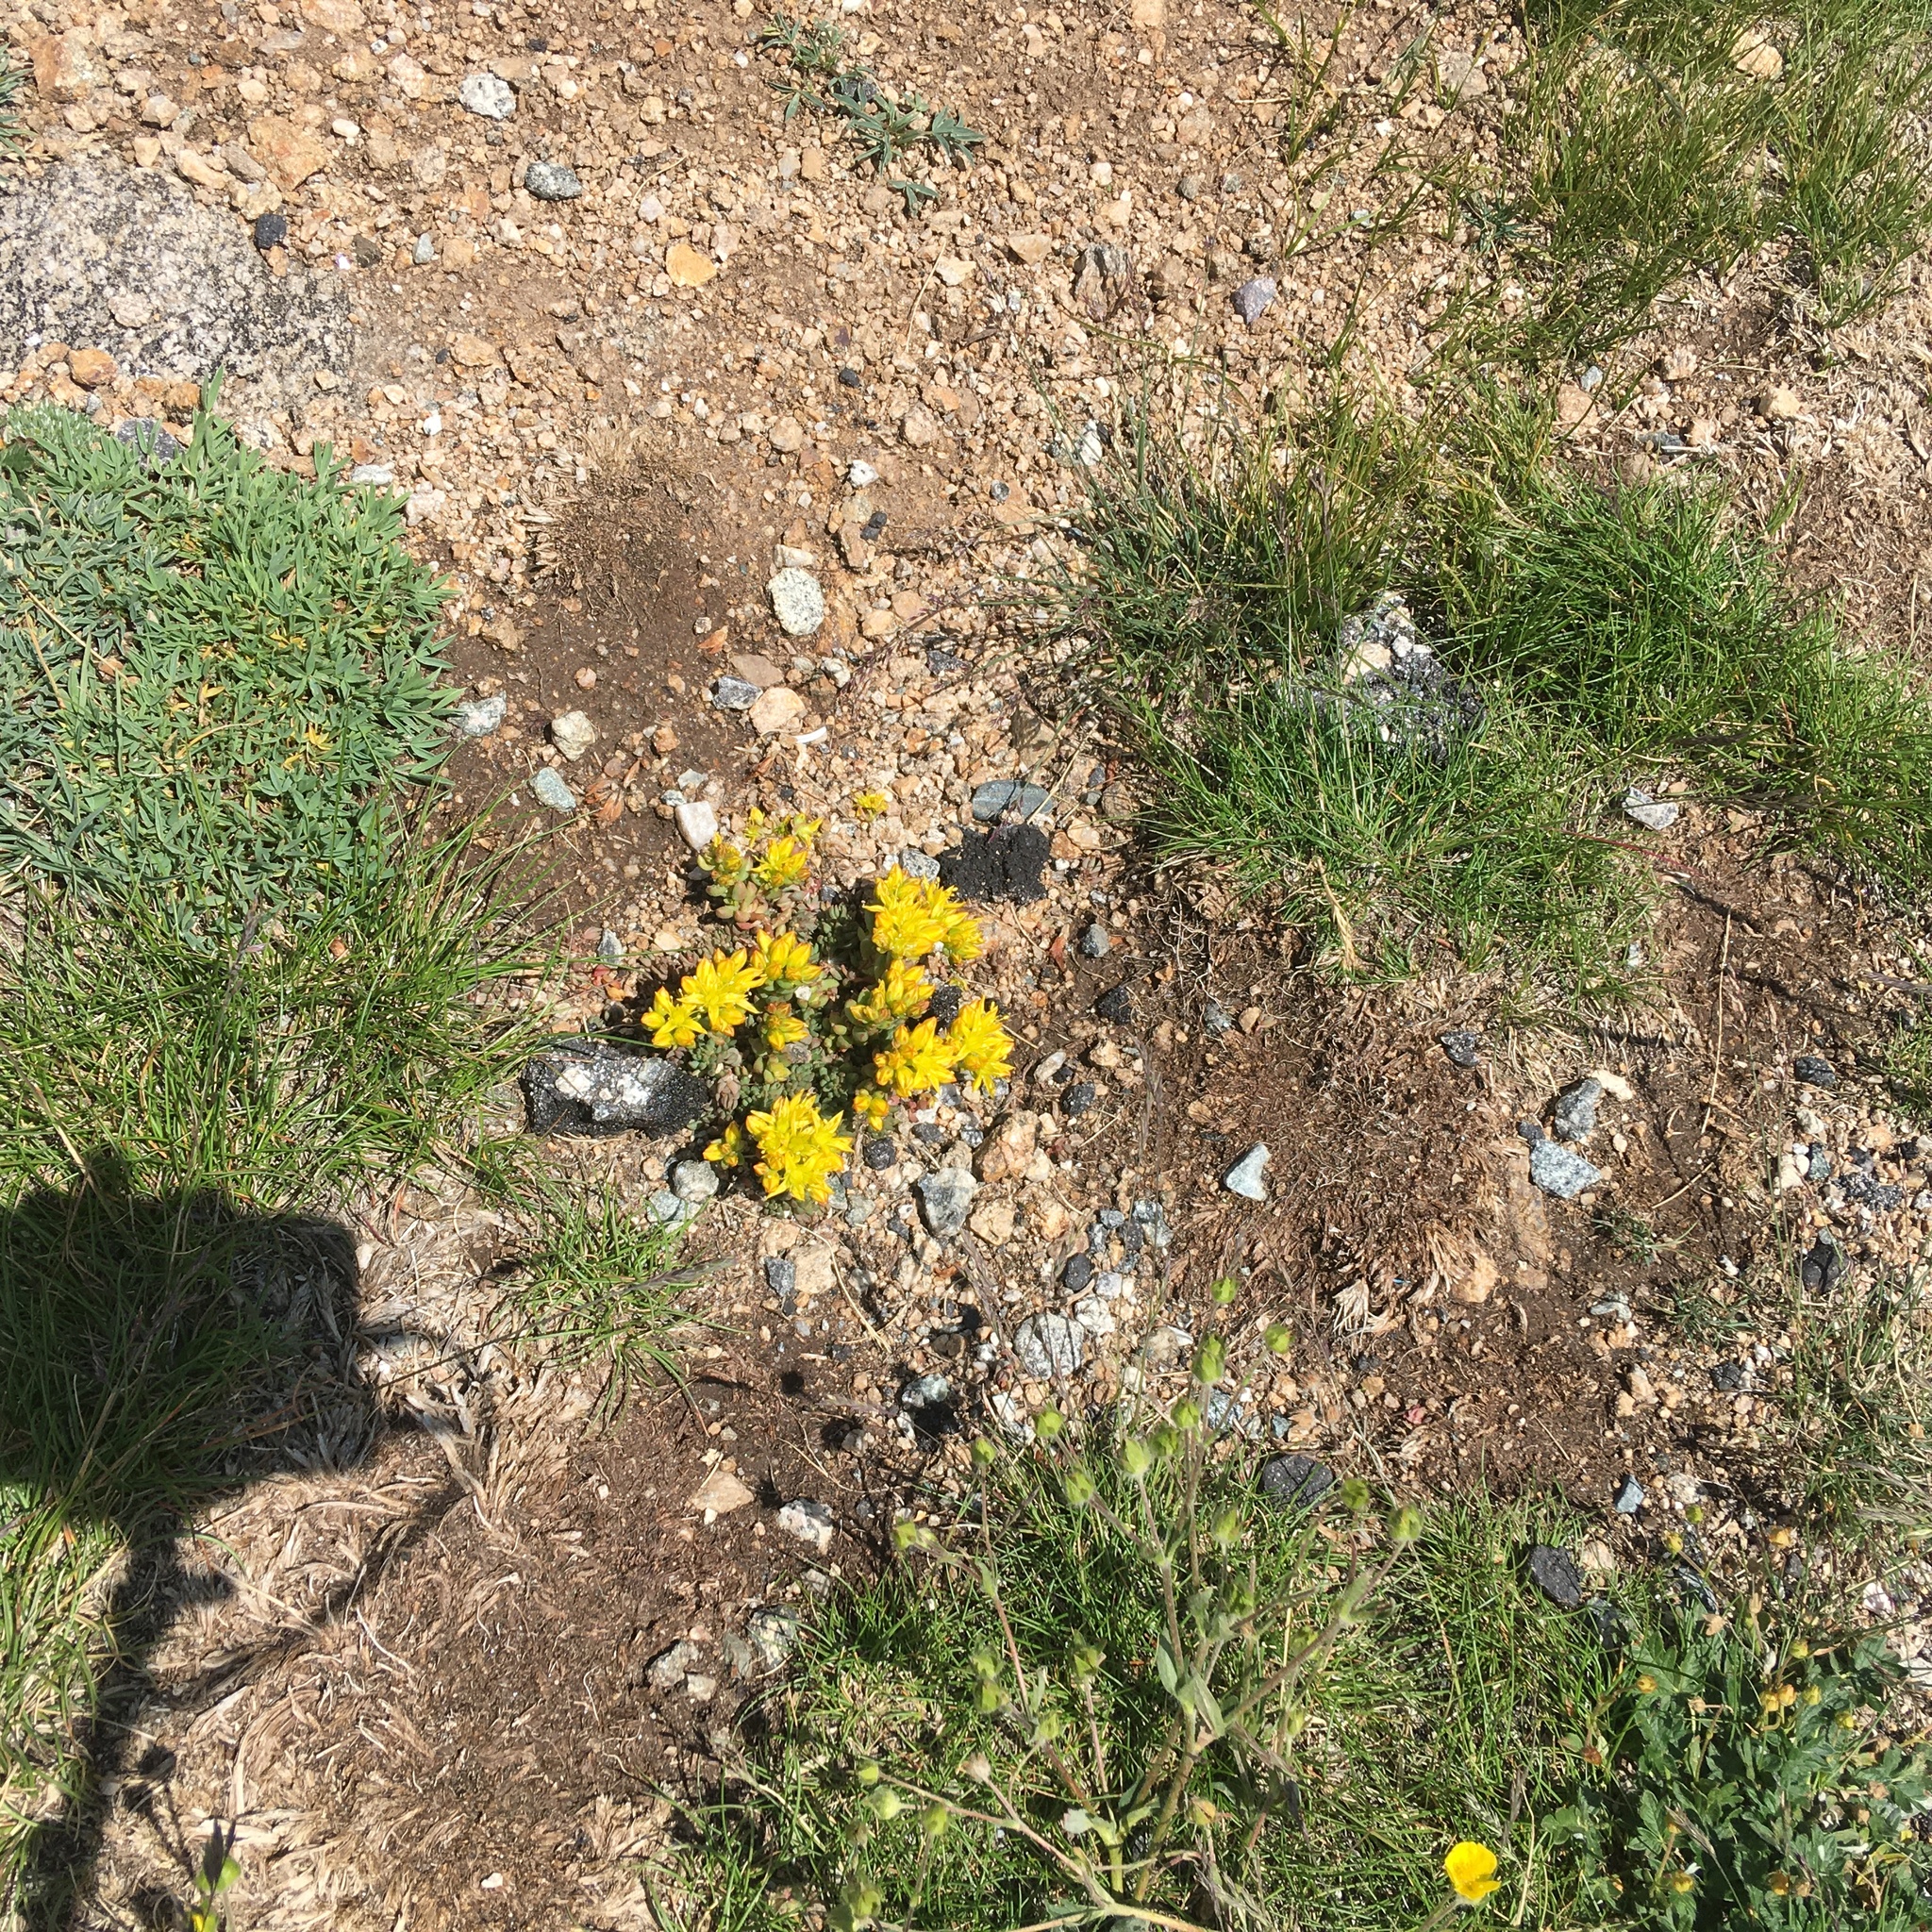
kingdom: Plantae
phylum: Tracheophyta
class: Magnoliopsida
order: Saxifragales
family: Crassulaceae
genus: Sedum
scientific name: Sedum lanceolatum
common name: Common stonecrop
